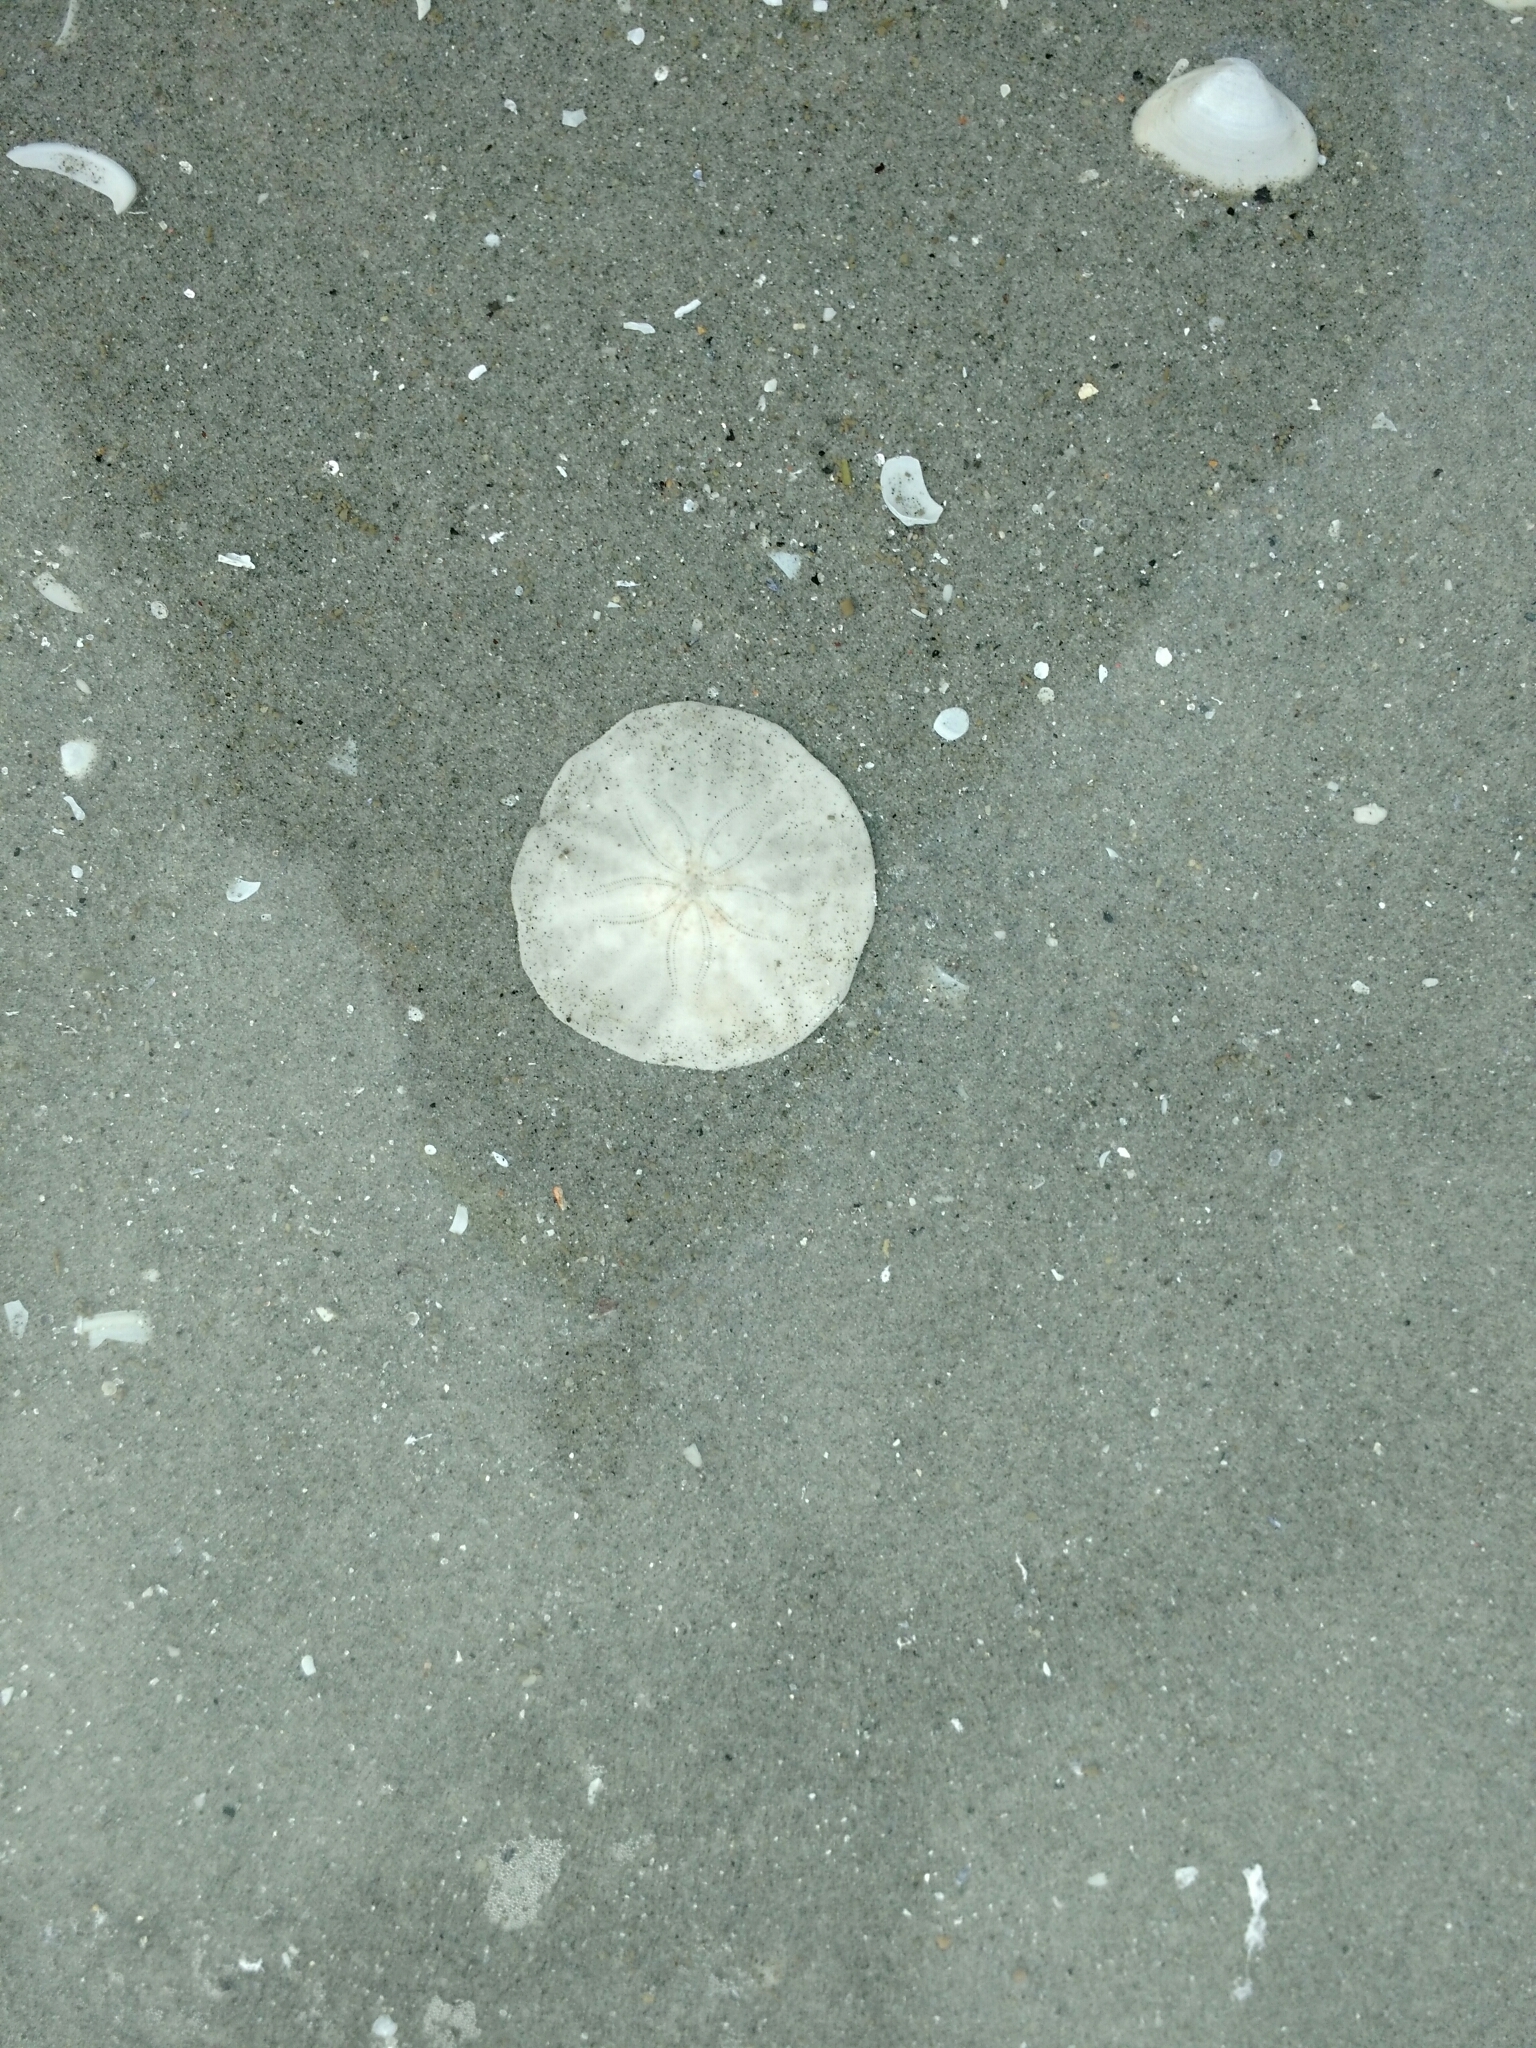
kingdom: Animalia
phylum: Echinodermata
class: Echinoidea
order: Echinolampadacea
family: Echinarachniidae
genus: Echinarachnius
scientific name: Echinarachnius parma
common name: Common sand dollar
